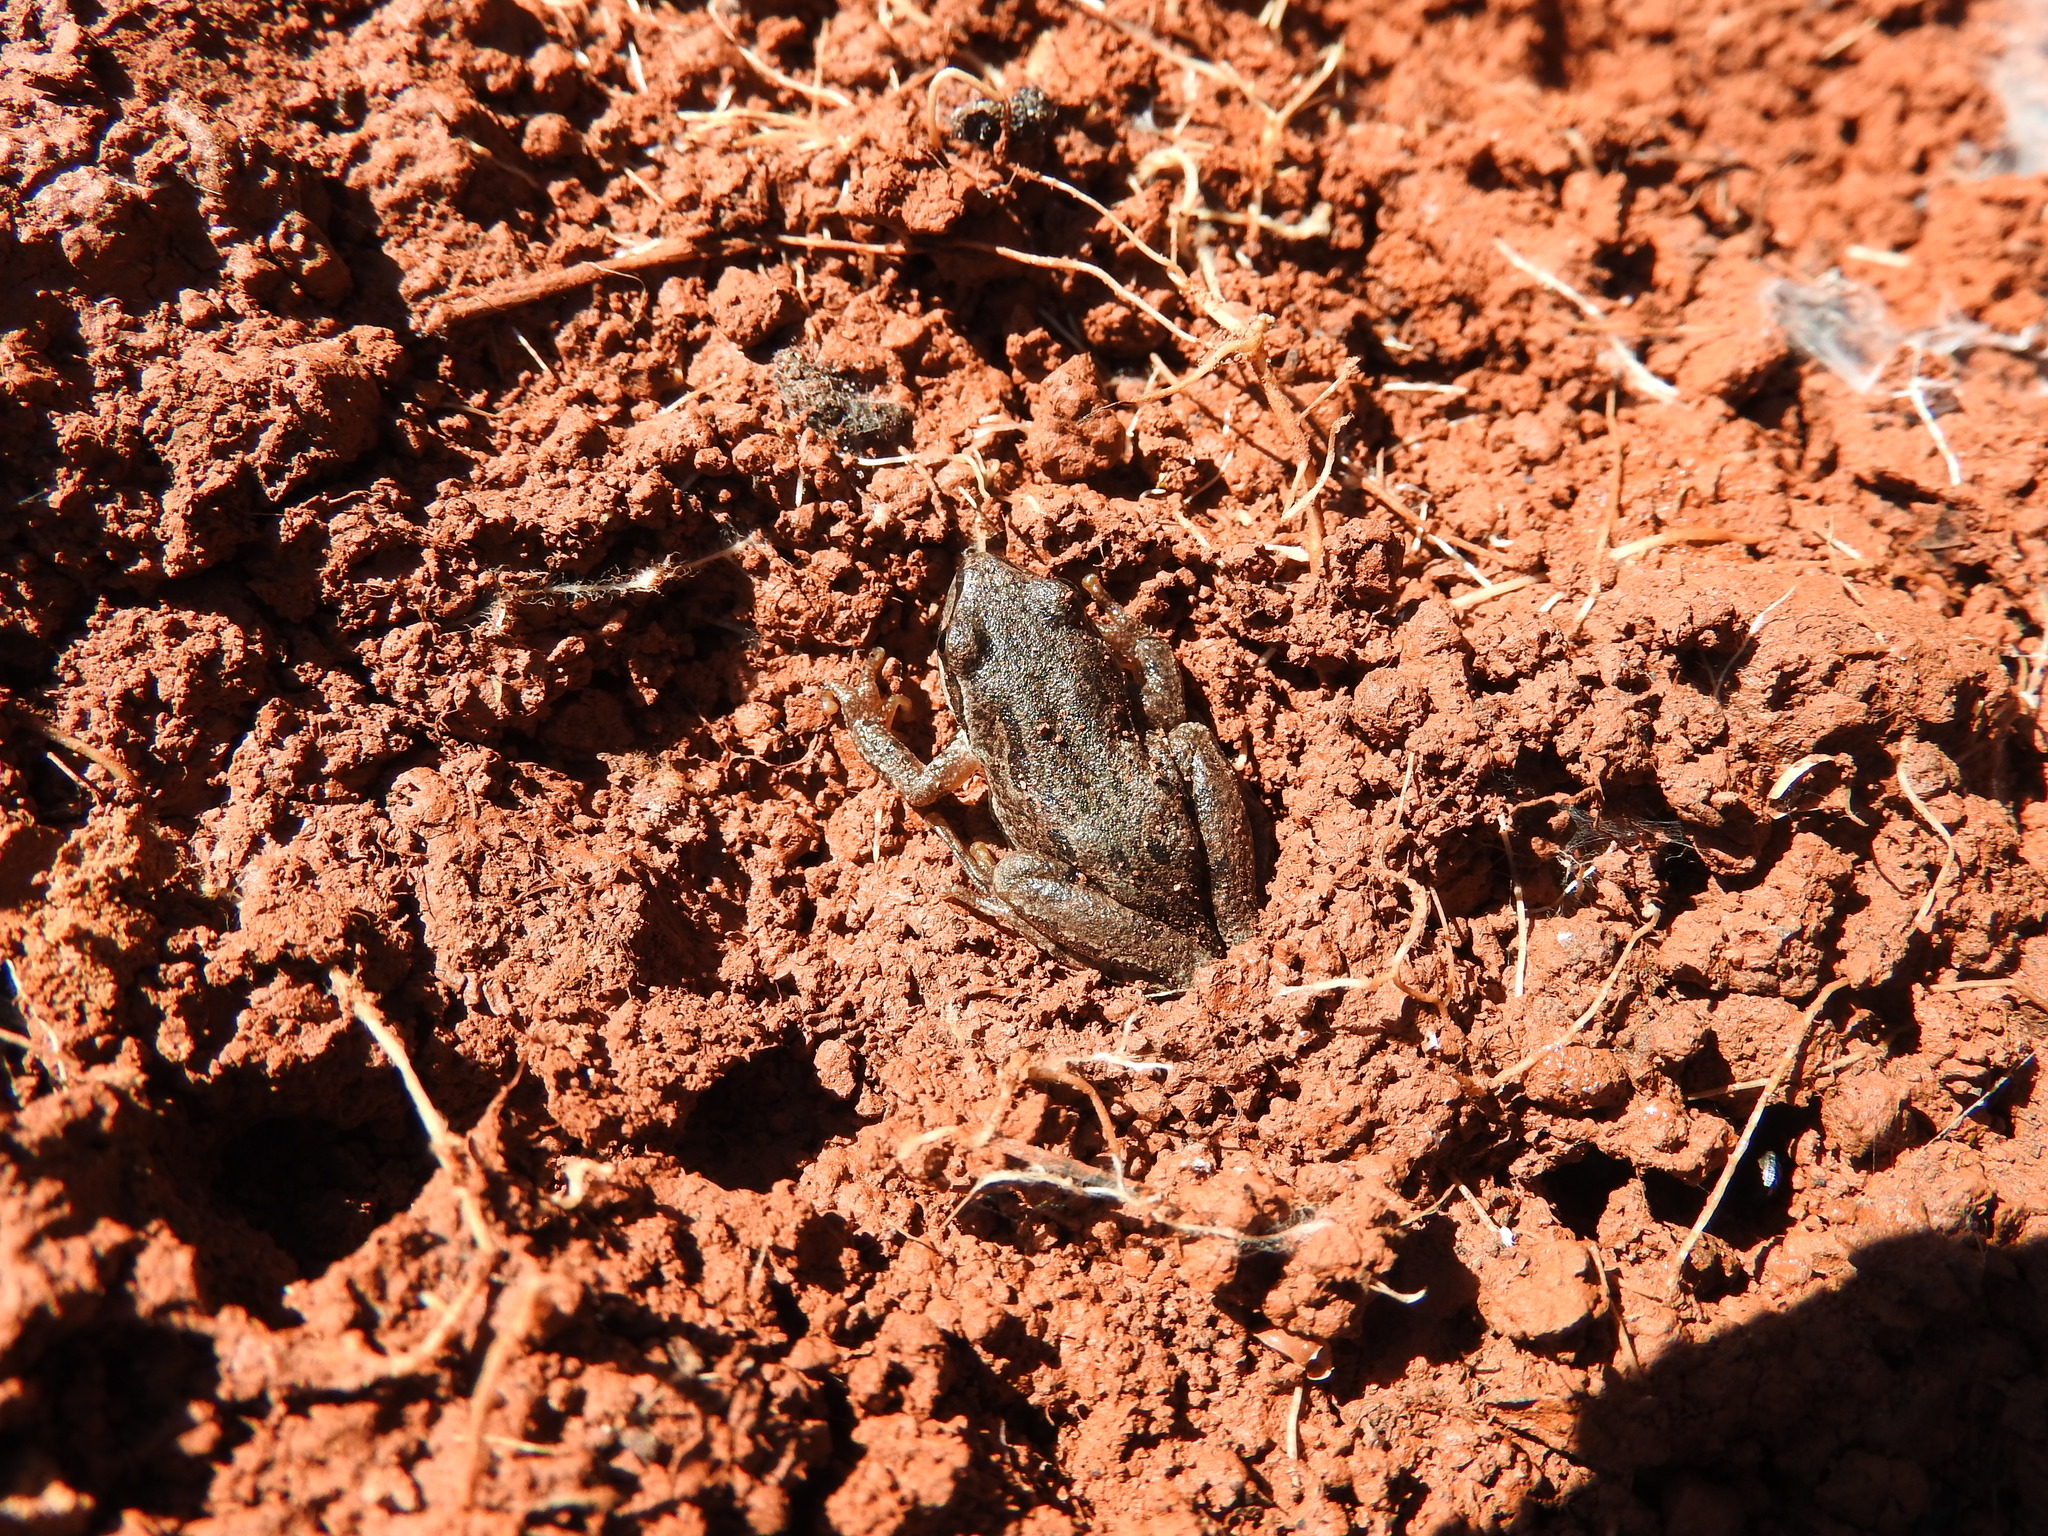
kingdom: Animalia
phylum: Chordata
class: Amphibia
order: Anura
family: Hylidae
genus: Dryophytes
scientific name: Dryophytes eximius
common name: Mountain treefrog
